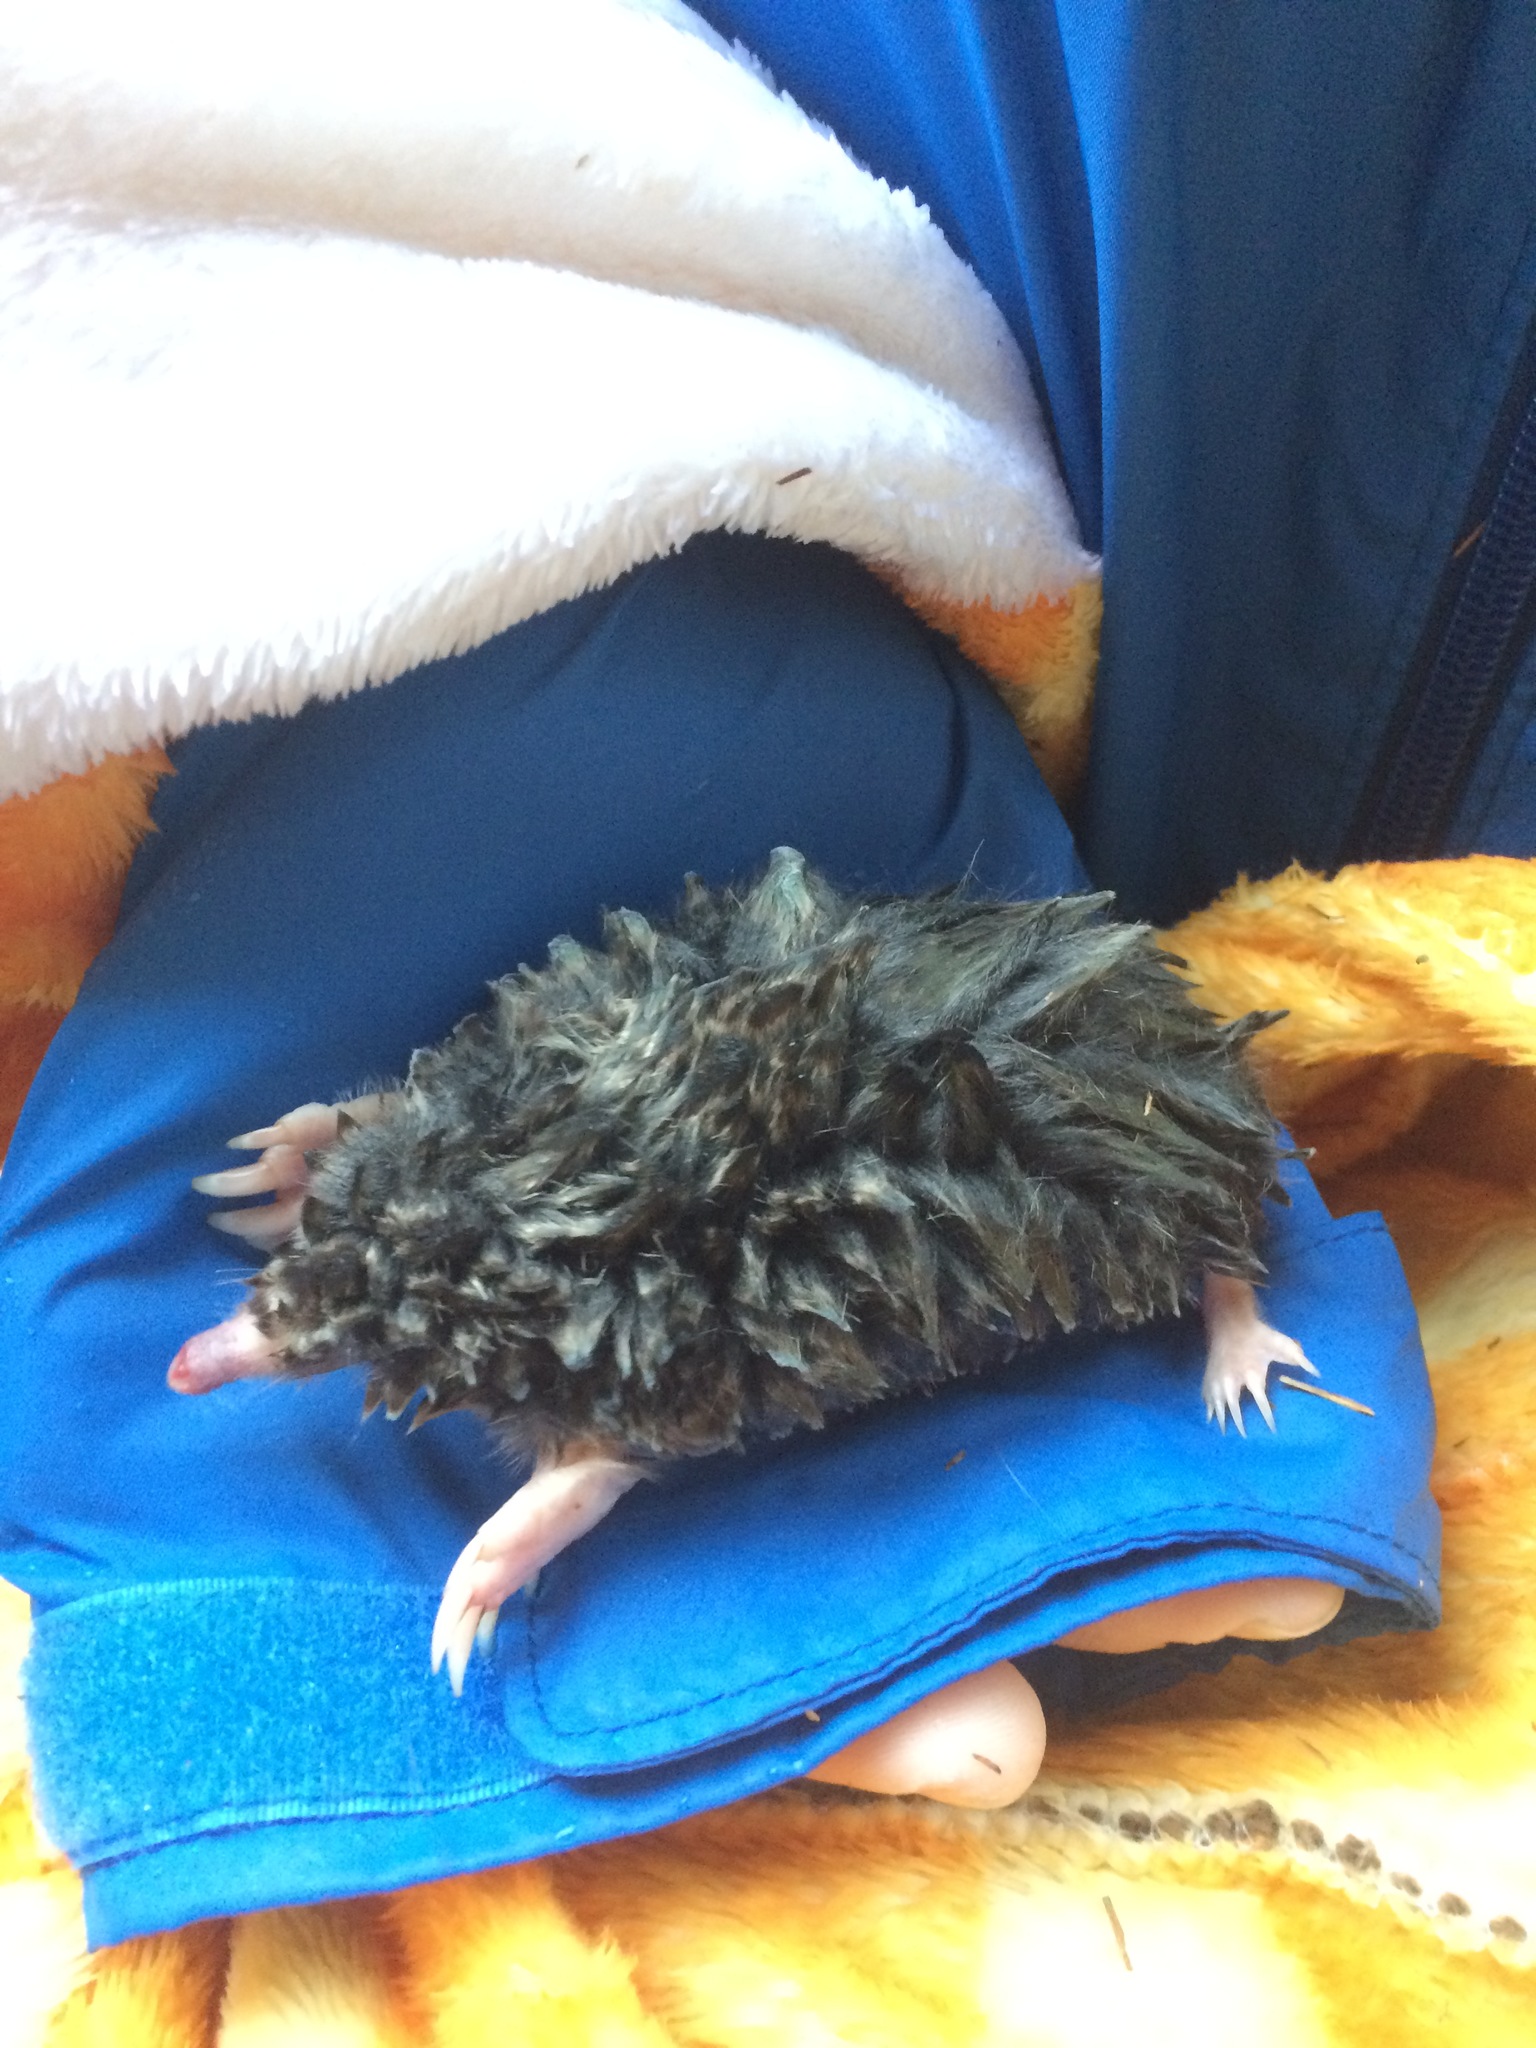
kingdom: Animalia
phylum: Chordata
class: Mammalia
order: Soricomorpha
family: Talpidae
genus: Scalopus
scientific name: Scalopus aquaticus
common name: Eastern mole
